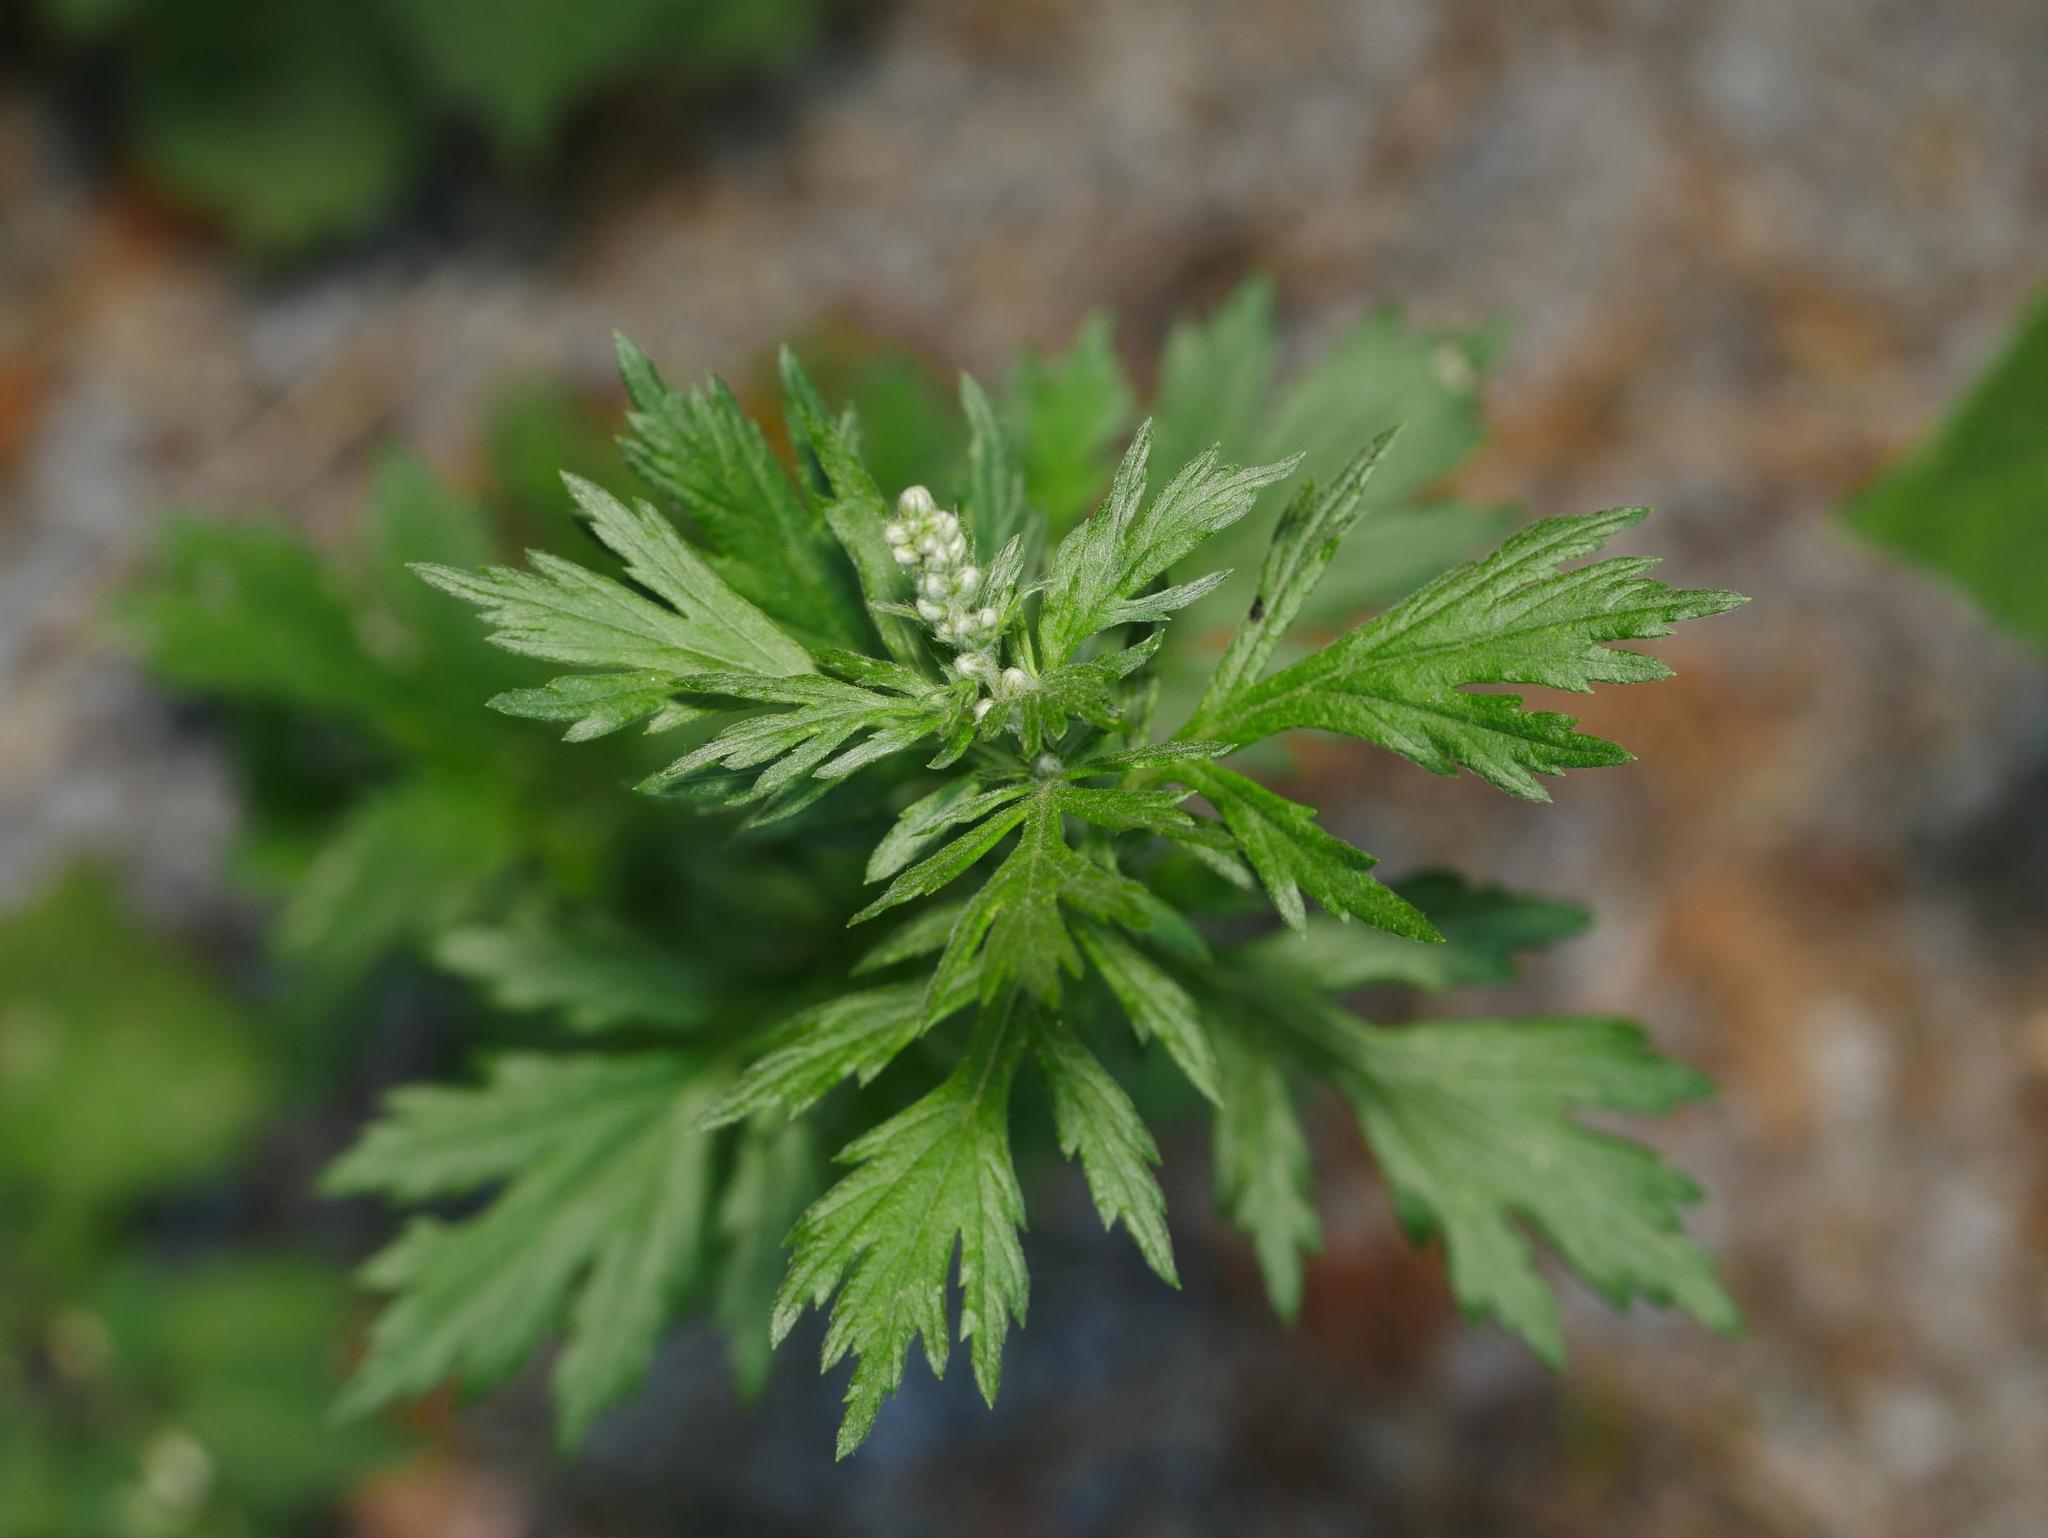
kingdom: Plantae
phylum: Tracheophyta
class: Magnoliopsida
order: Asterales
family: Asteraceae
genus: Artemisia
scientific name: Artemisia vulgaris
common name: Mugwort
